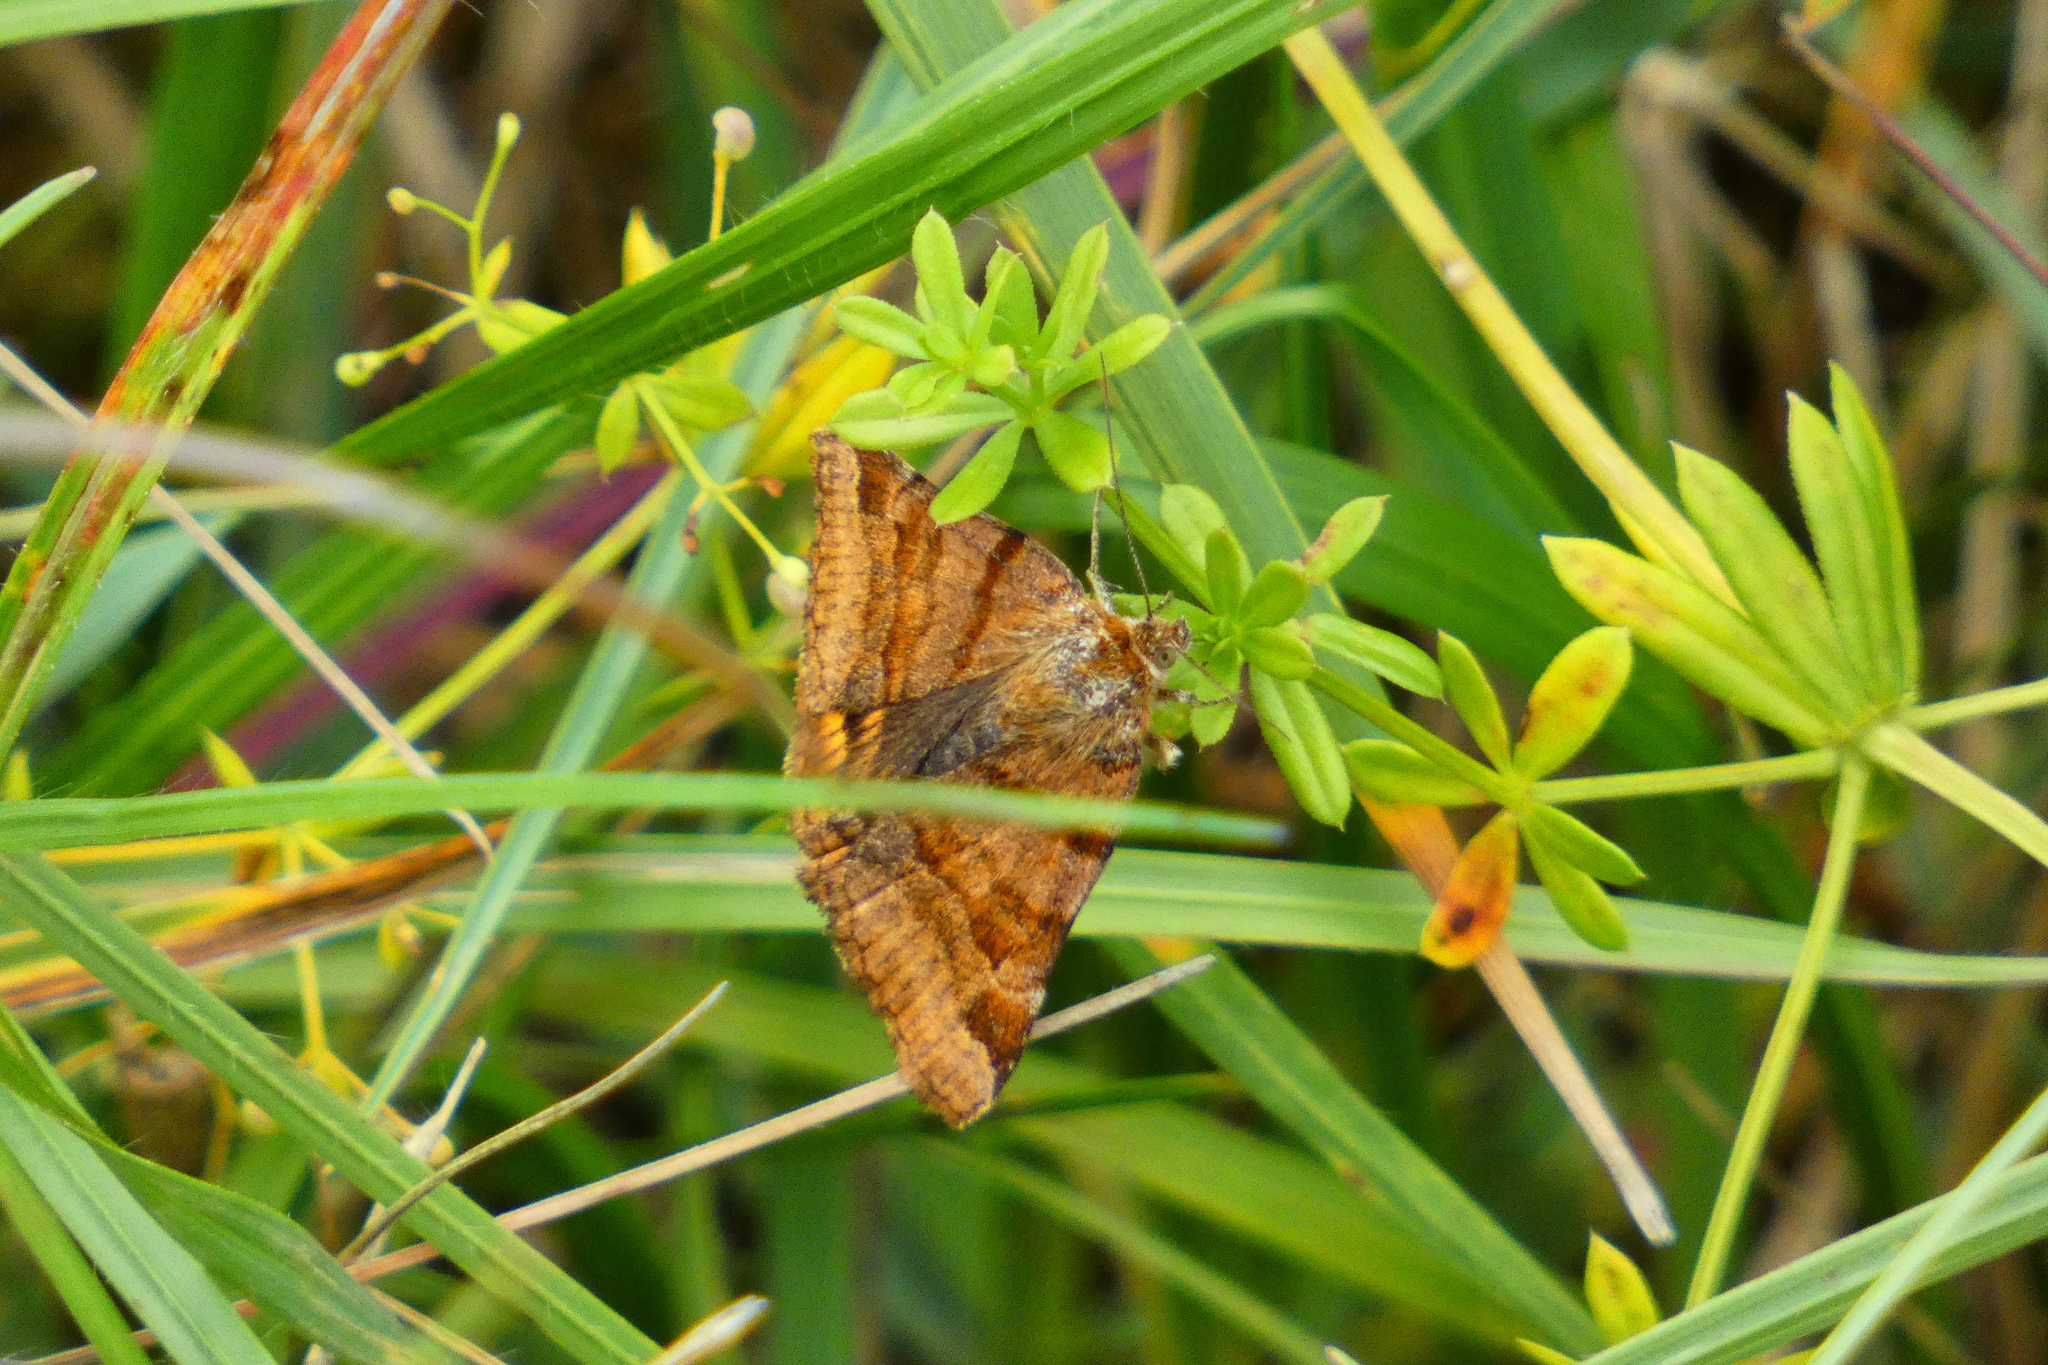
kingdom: Animalia
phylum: Arthropoda
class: Insecta
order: Lepidoptera
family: Erebidae
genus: Euclidia
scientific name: Euclidia glyphica
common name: Burnet companion
